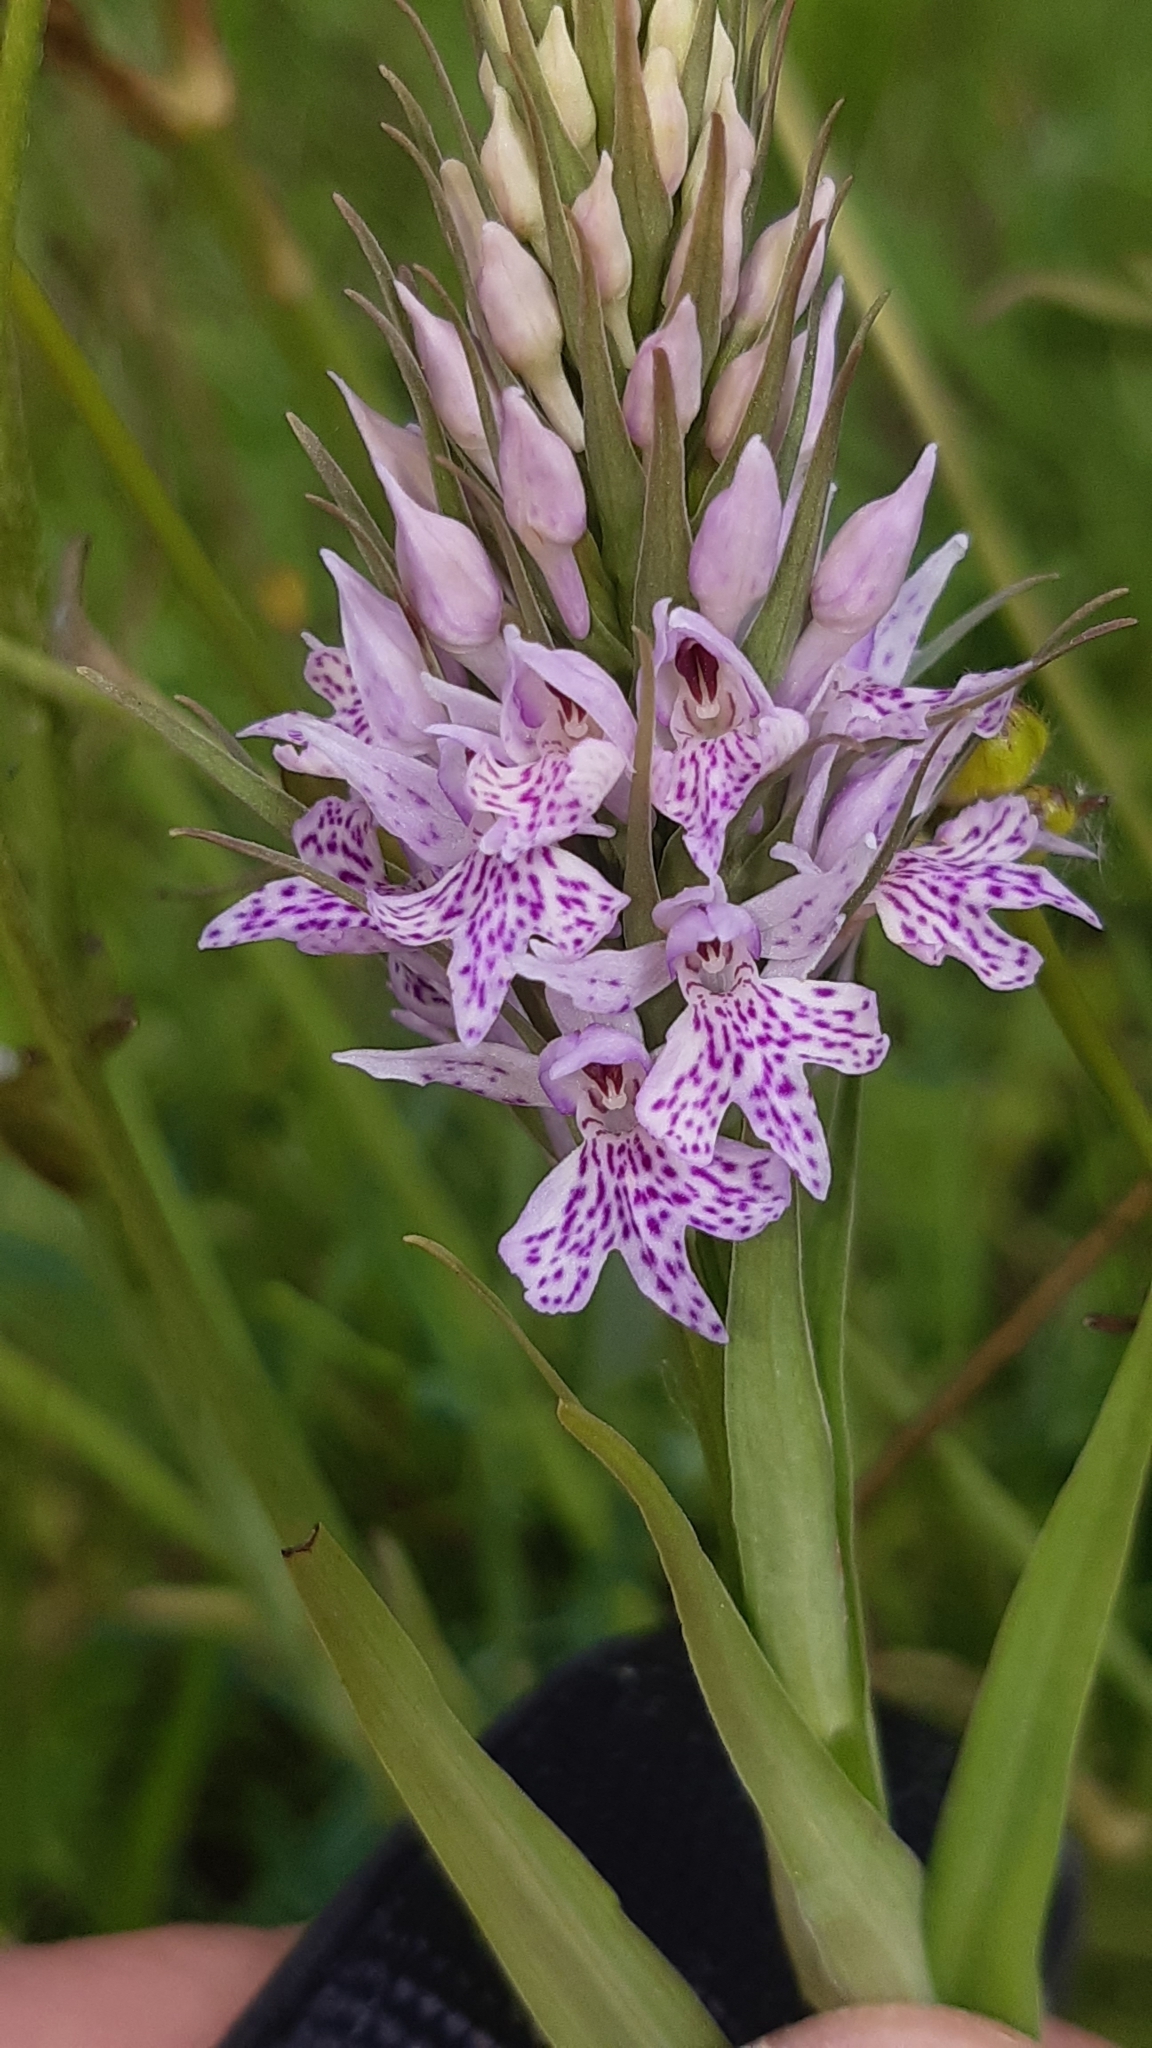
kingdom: Plantae
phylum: Tracheophyta
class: Liliopsida
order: Asparagales
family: Orchidaceae
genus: Dactylorhiza
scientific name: Dactylorhiza maculata
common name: Heath spotted-orchid
